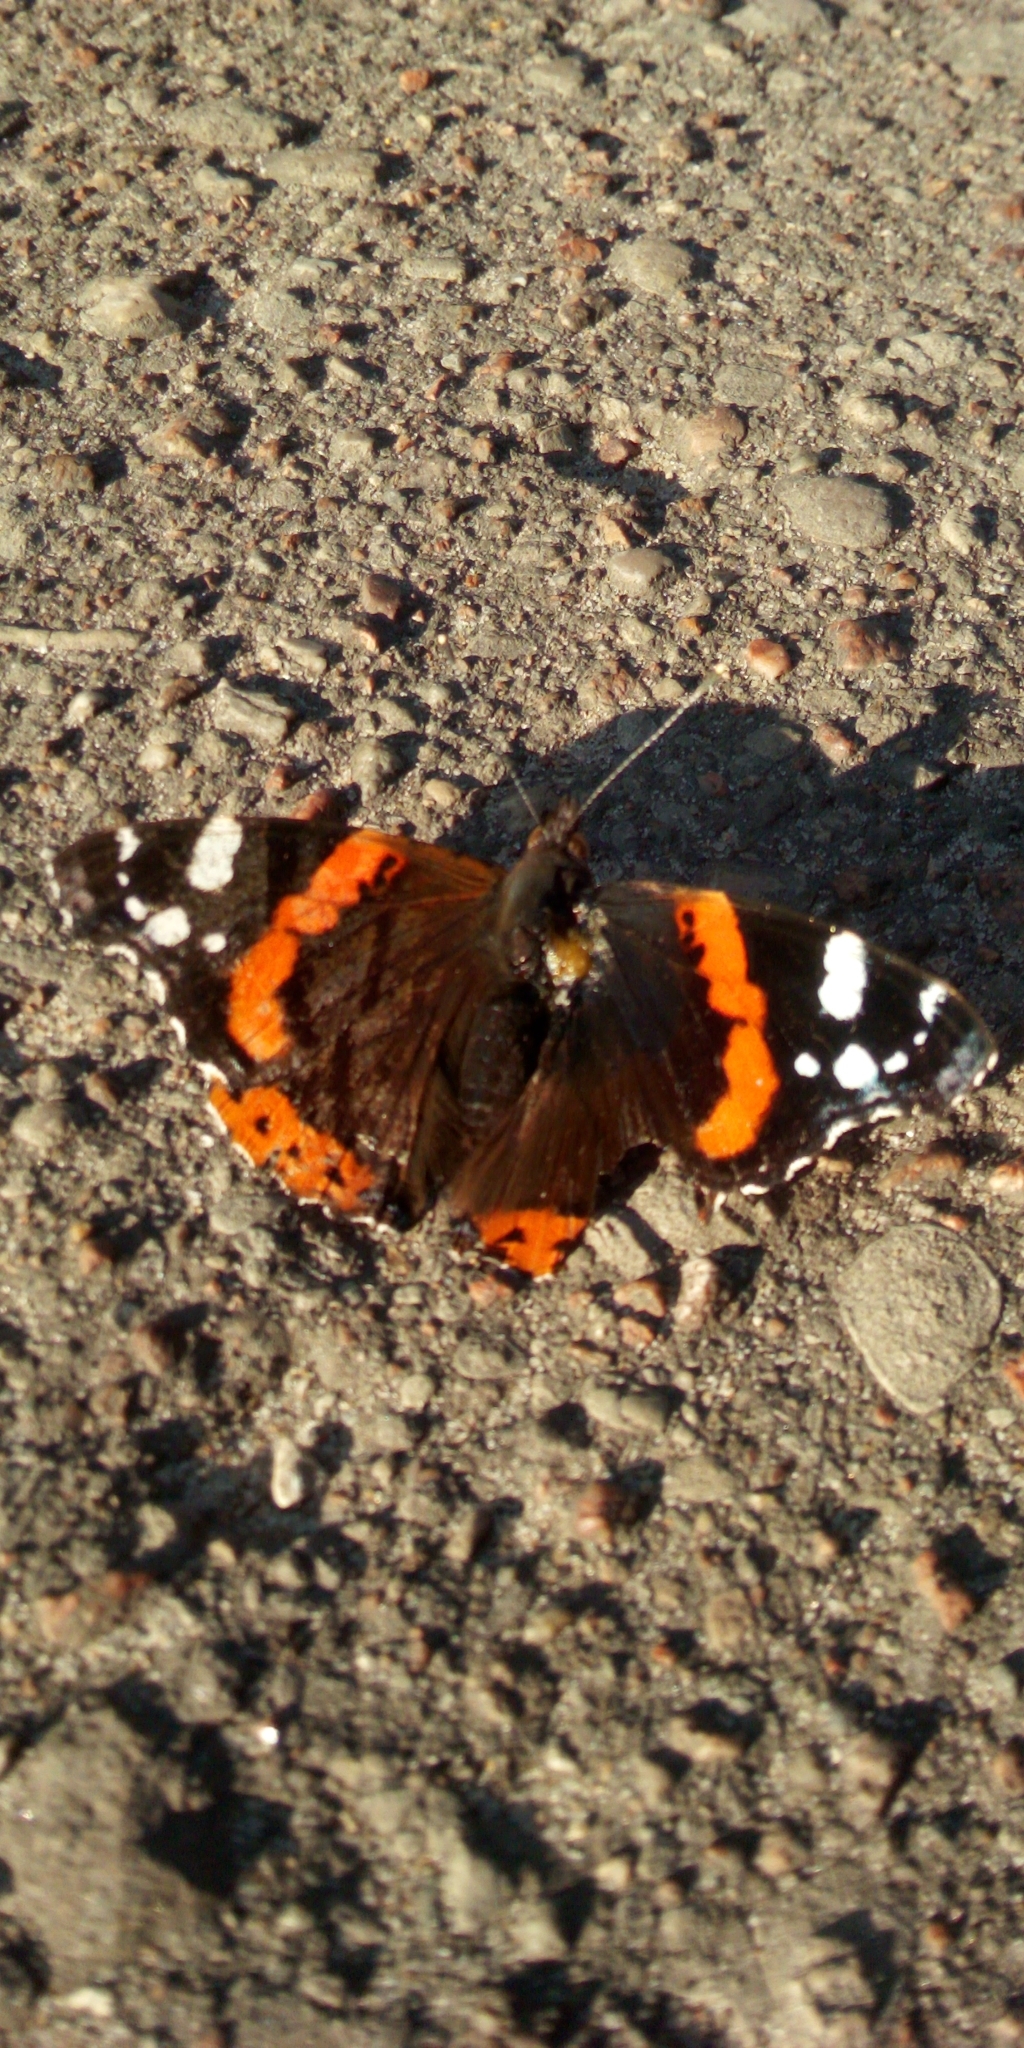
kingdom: Animalia
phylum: Arthropoda
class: Insecta
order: Lepidoptera
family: Nymphalidae
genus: Vanessa
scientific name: Vanessa atalanta
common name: Red admiral
